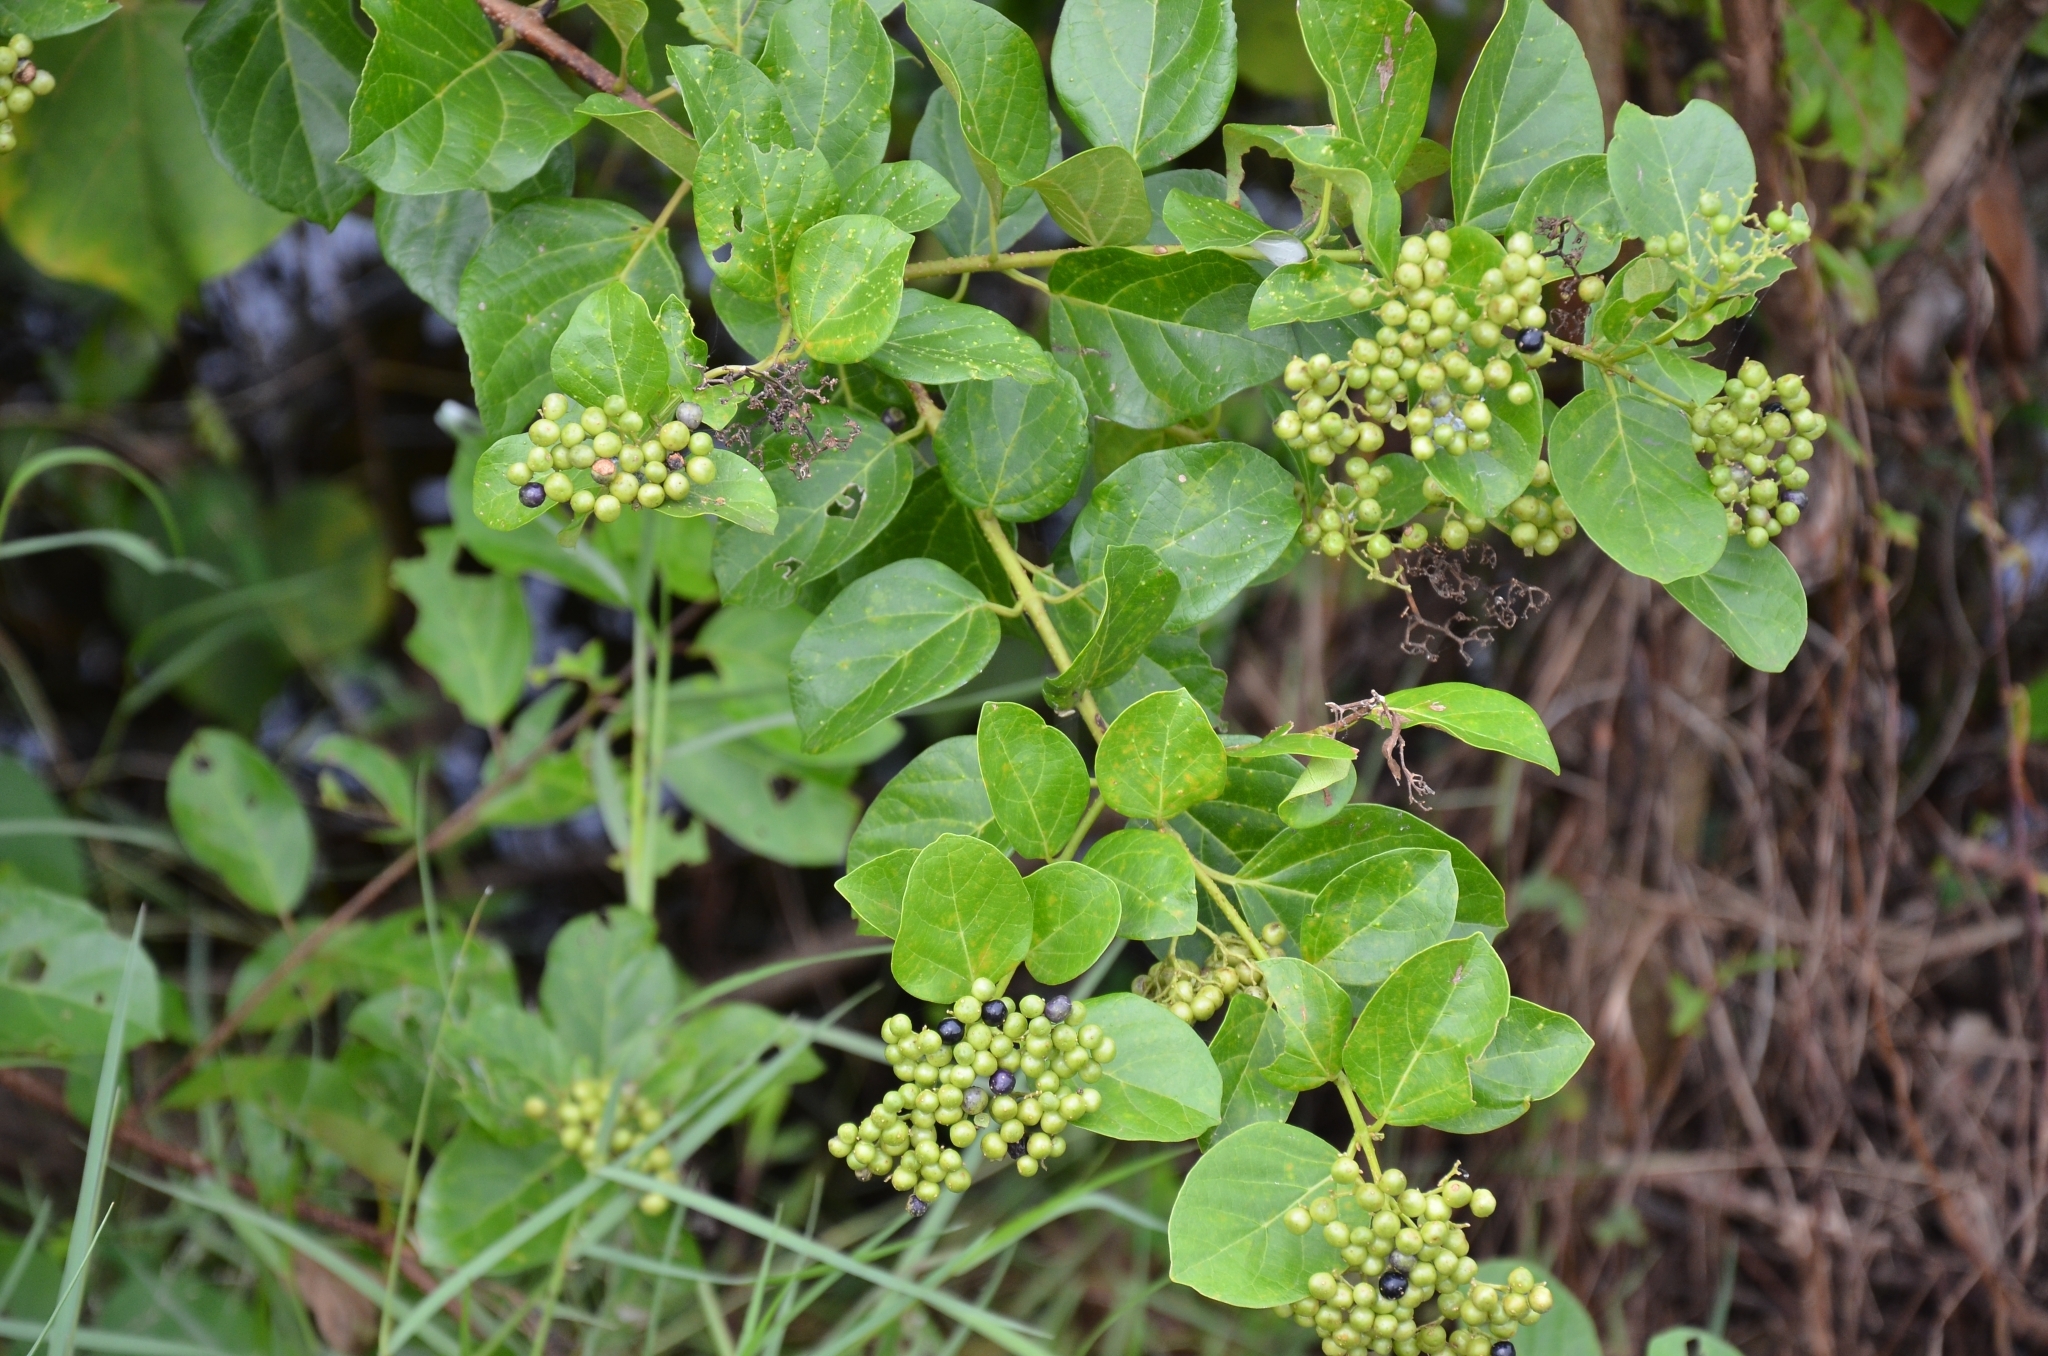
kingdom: Plantae
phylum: Tracheophyta
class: Magnoliopsida
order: Lamiales
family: Lamiaceae
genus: Premna
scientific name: Premna serratifolia
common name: Bastard guelder
